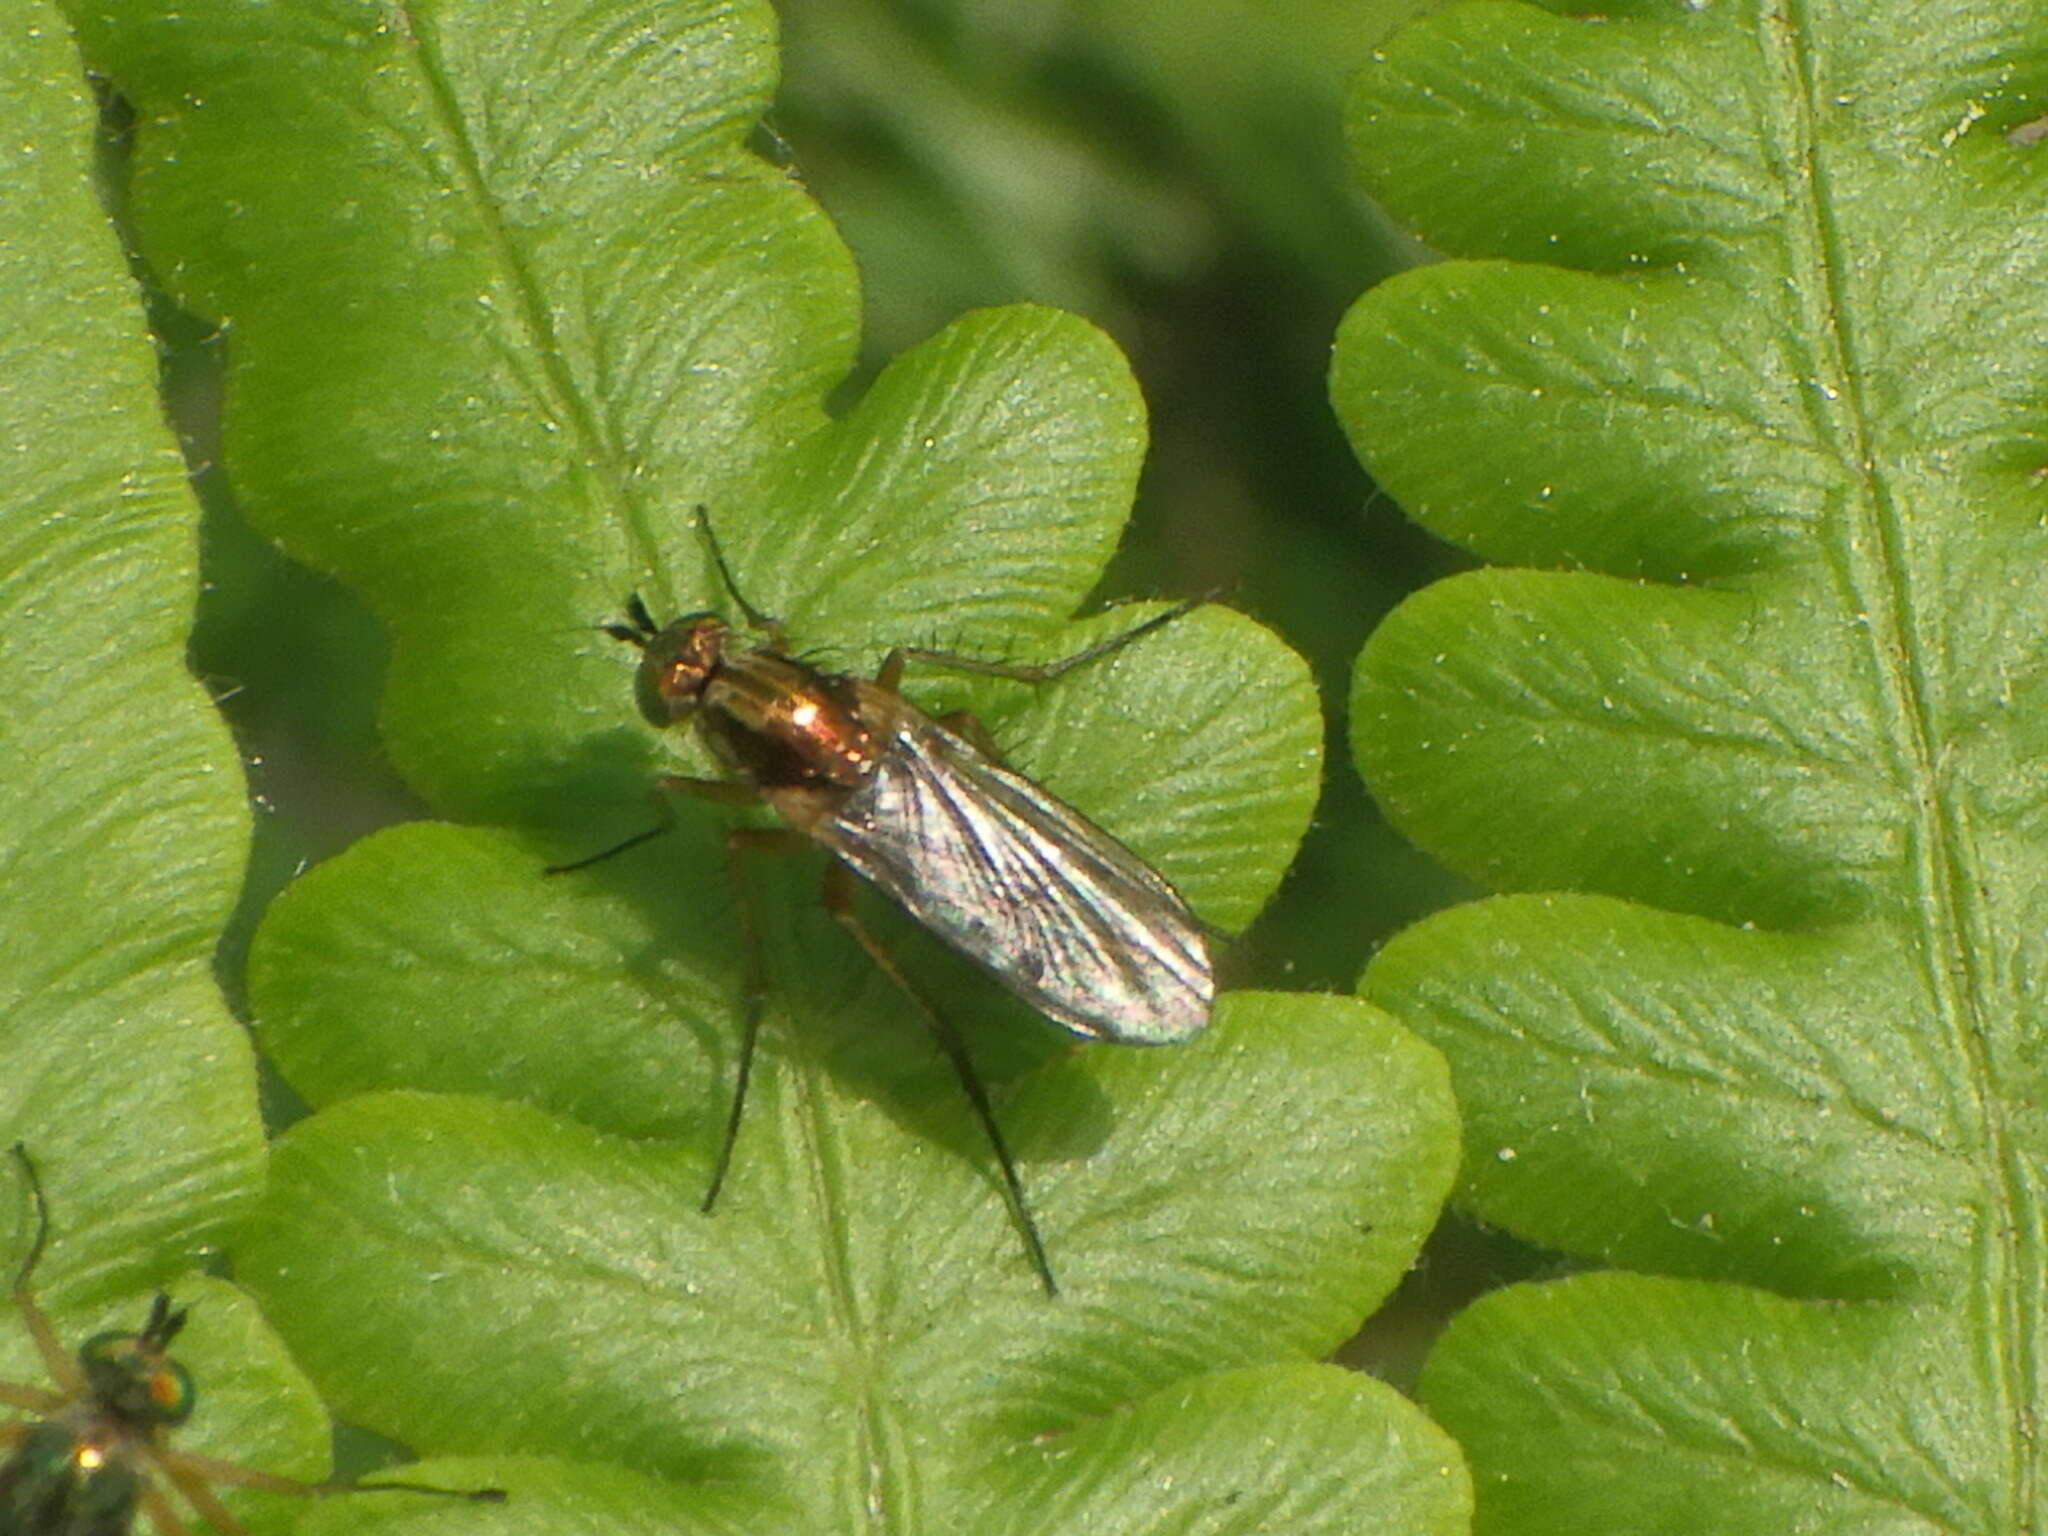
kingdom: Animalia
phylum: Arthropoda
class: Insecta
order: Diptera
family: Dolichopodidae
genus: Dolichopus
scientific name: Dolichopus
